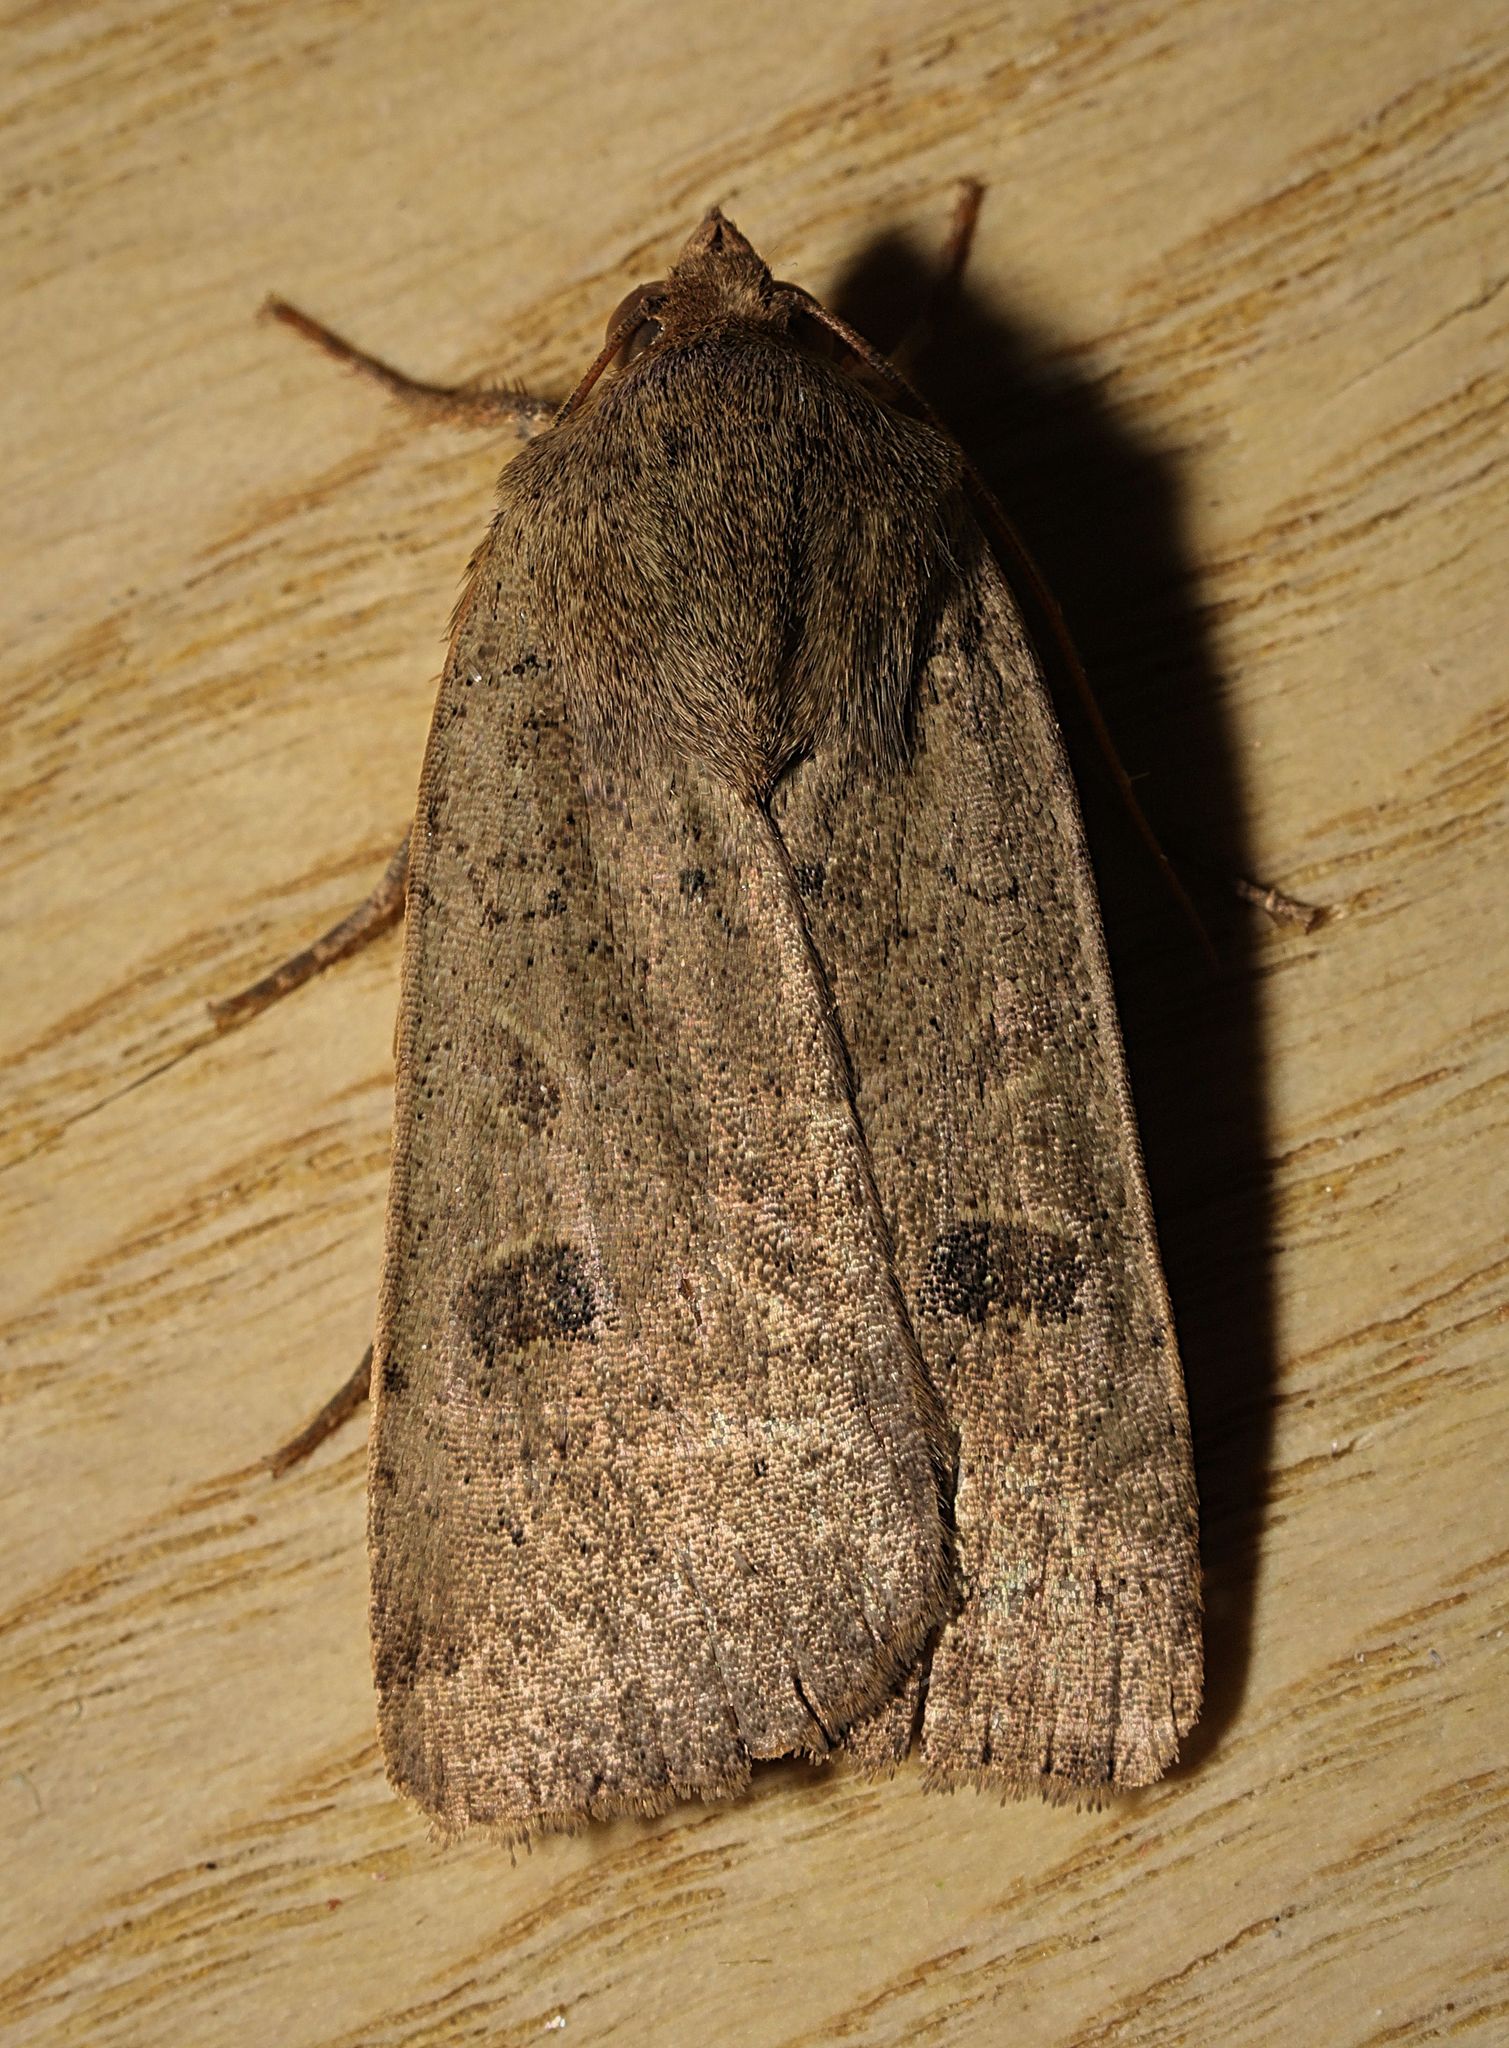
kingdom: Animalia
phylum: Arthropoda
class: Insecta
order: Lepidoptera
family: Noctuidae
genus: Noctua
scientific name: Noctua comes
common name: Lesser yellow underwing
